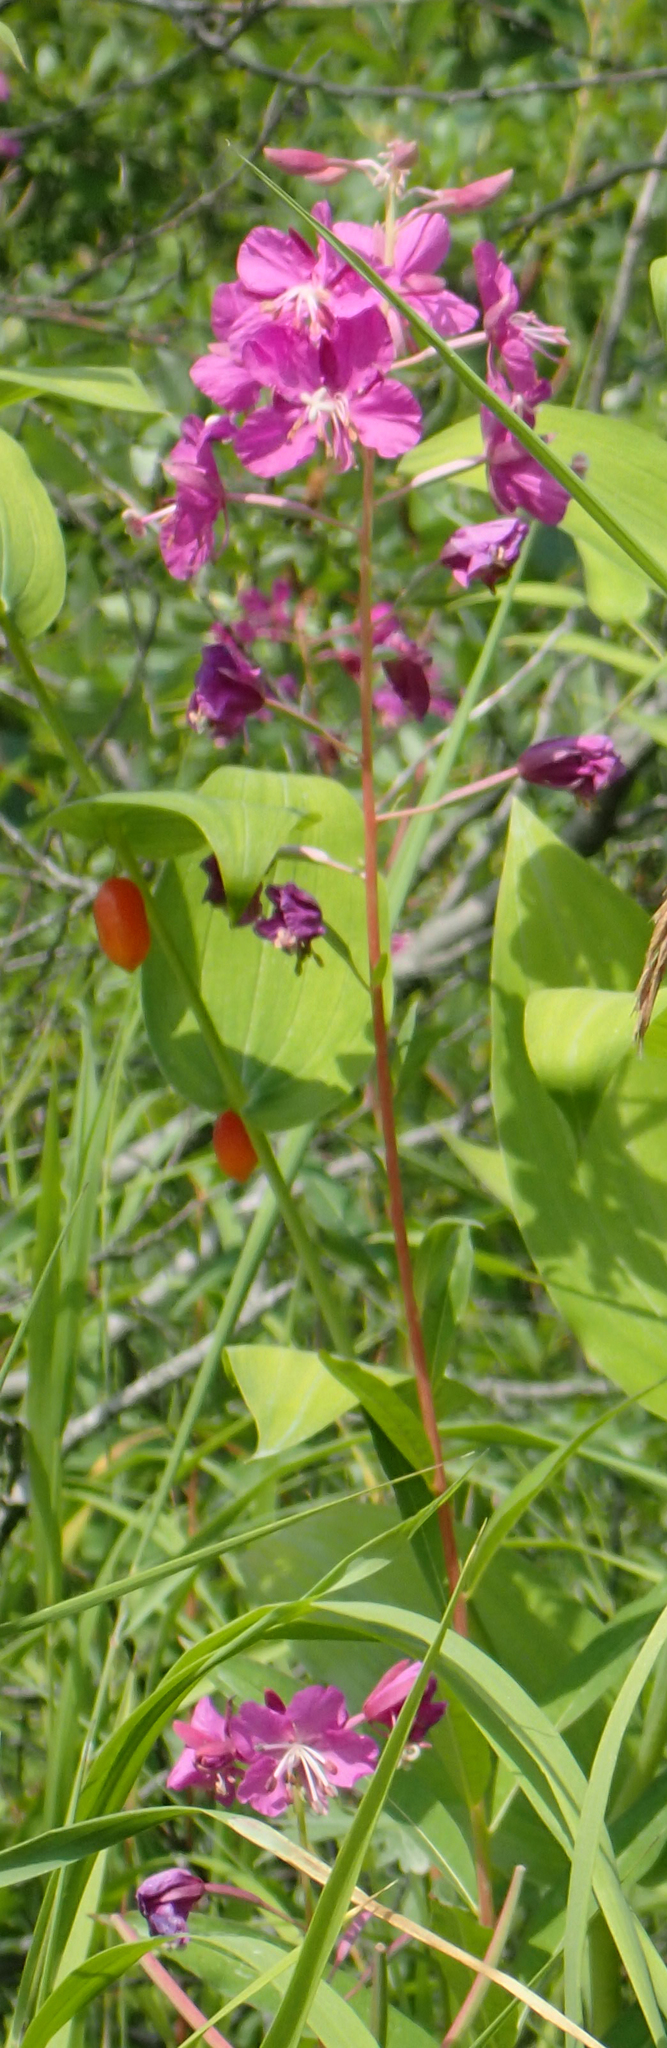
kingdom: Plantae
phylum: Tracheophyta
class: Magnoliopsida
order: Myrtales
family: Onagraceae
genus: Chamaenerion
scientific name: Chamaenerion angustifolium
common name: Fireweed
